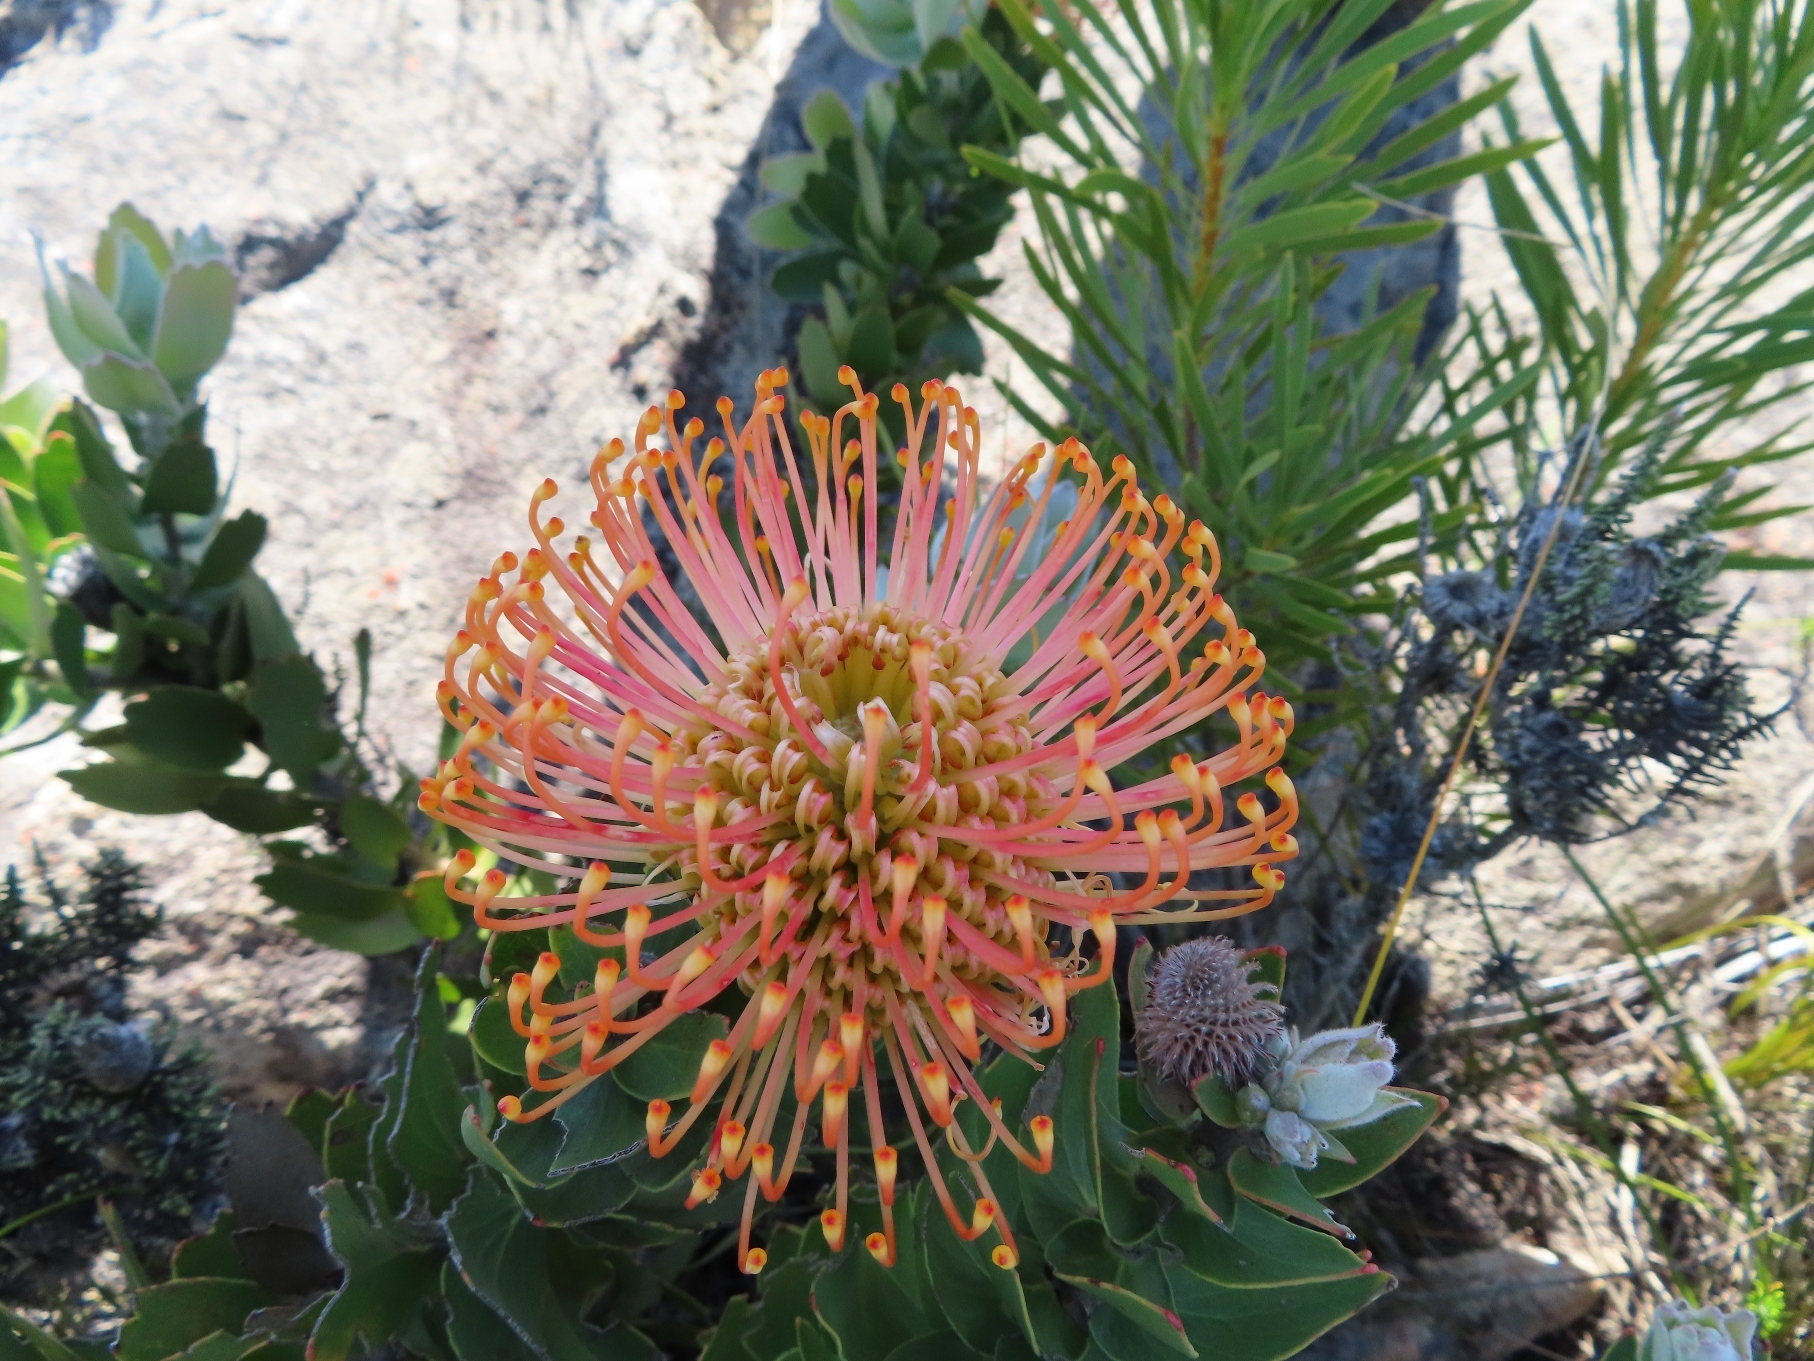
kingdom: Plantae
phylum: Tracheophyta
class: Magnoliopsida
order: Proteales
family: Proteaceae
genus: Leucospermum
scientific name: Leucospermum cordifolium
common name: Red pincushion-protea
